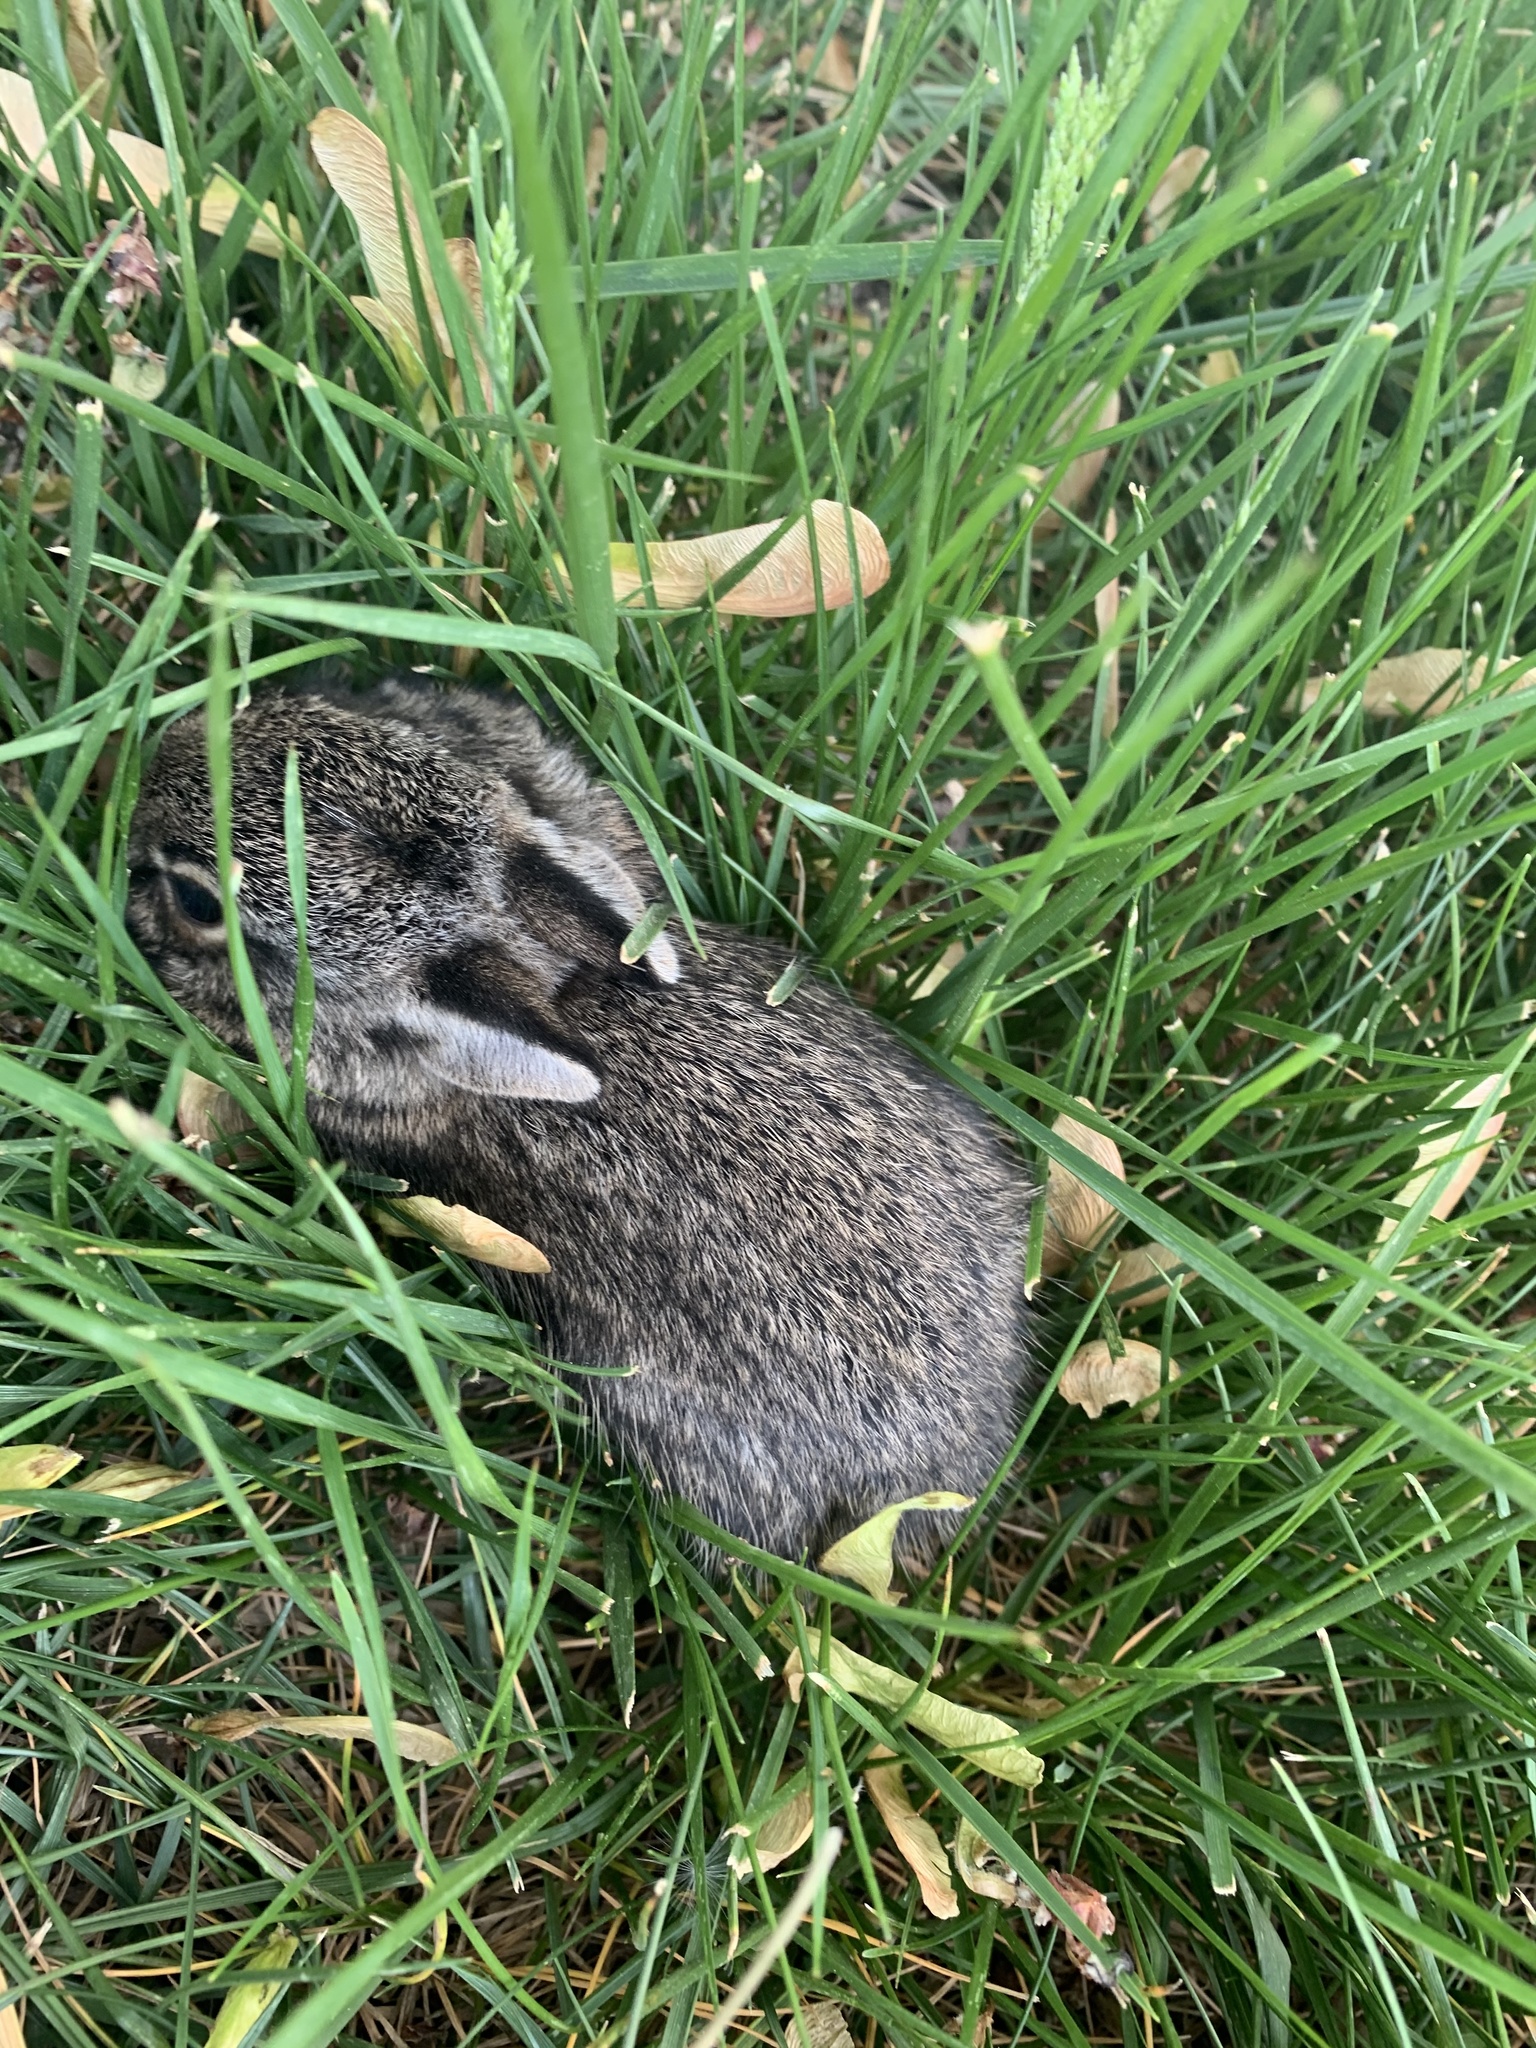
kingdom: Animalia
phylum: Chordata
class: Mammalia
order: Lagomorpha
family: Leporidae
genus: Sylvilagus
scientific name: Sylvilagus floridanus
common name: Eastern cottontail
